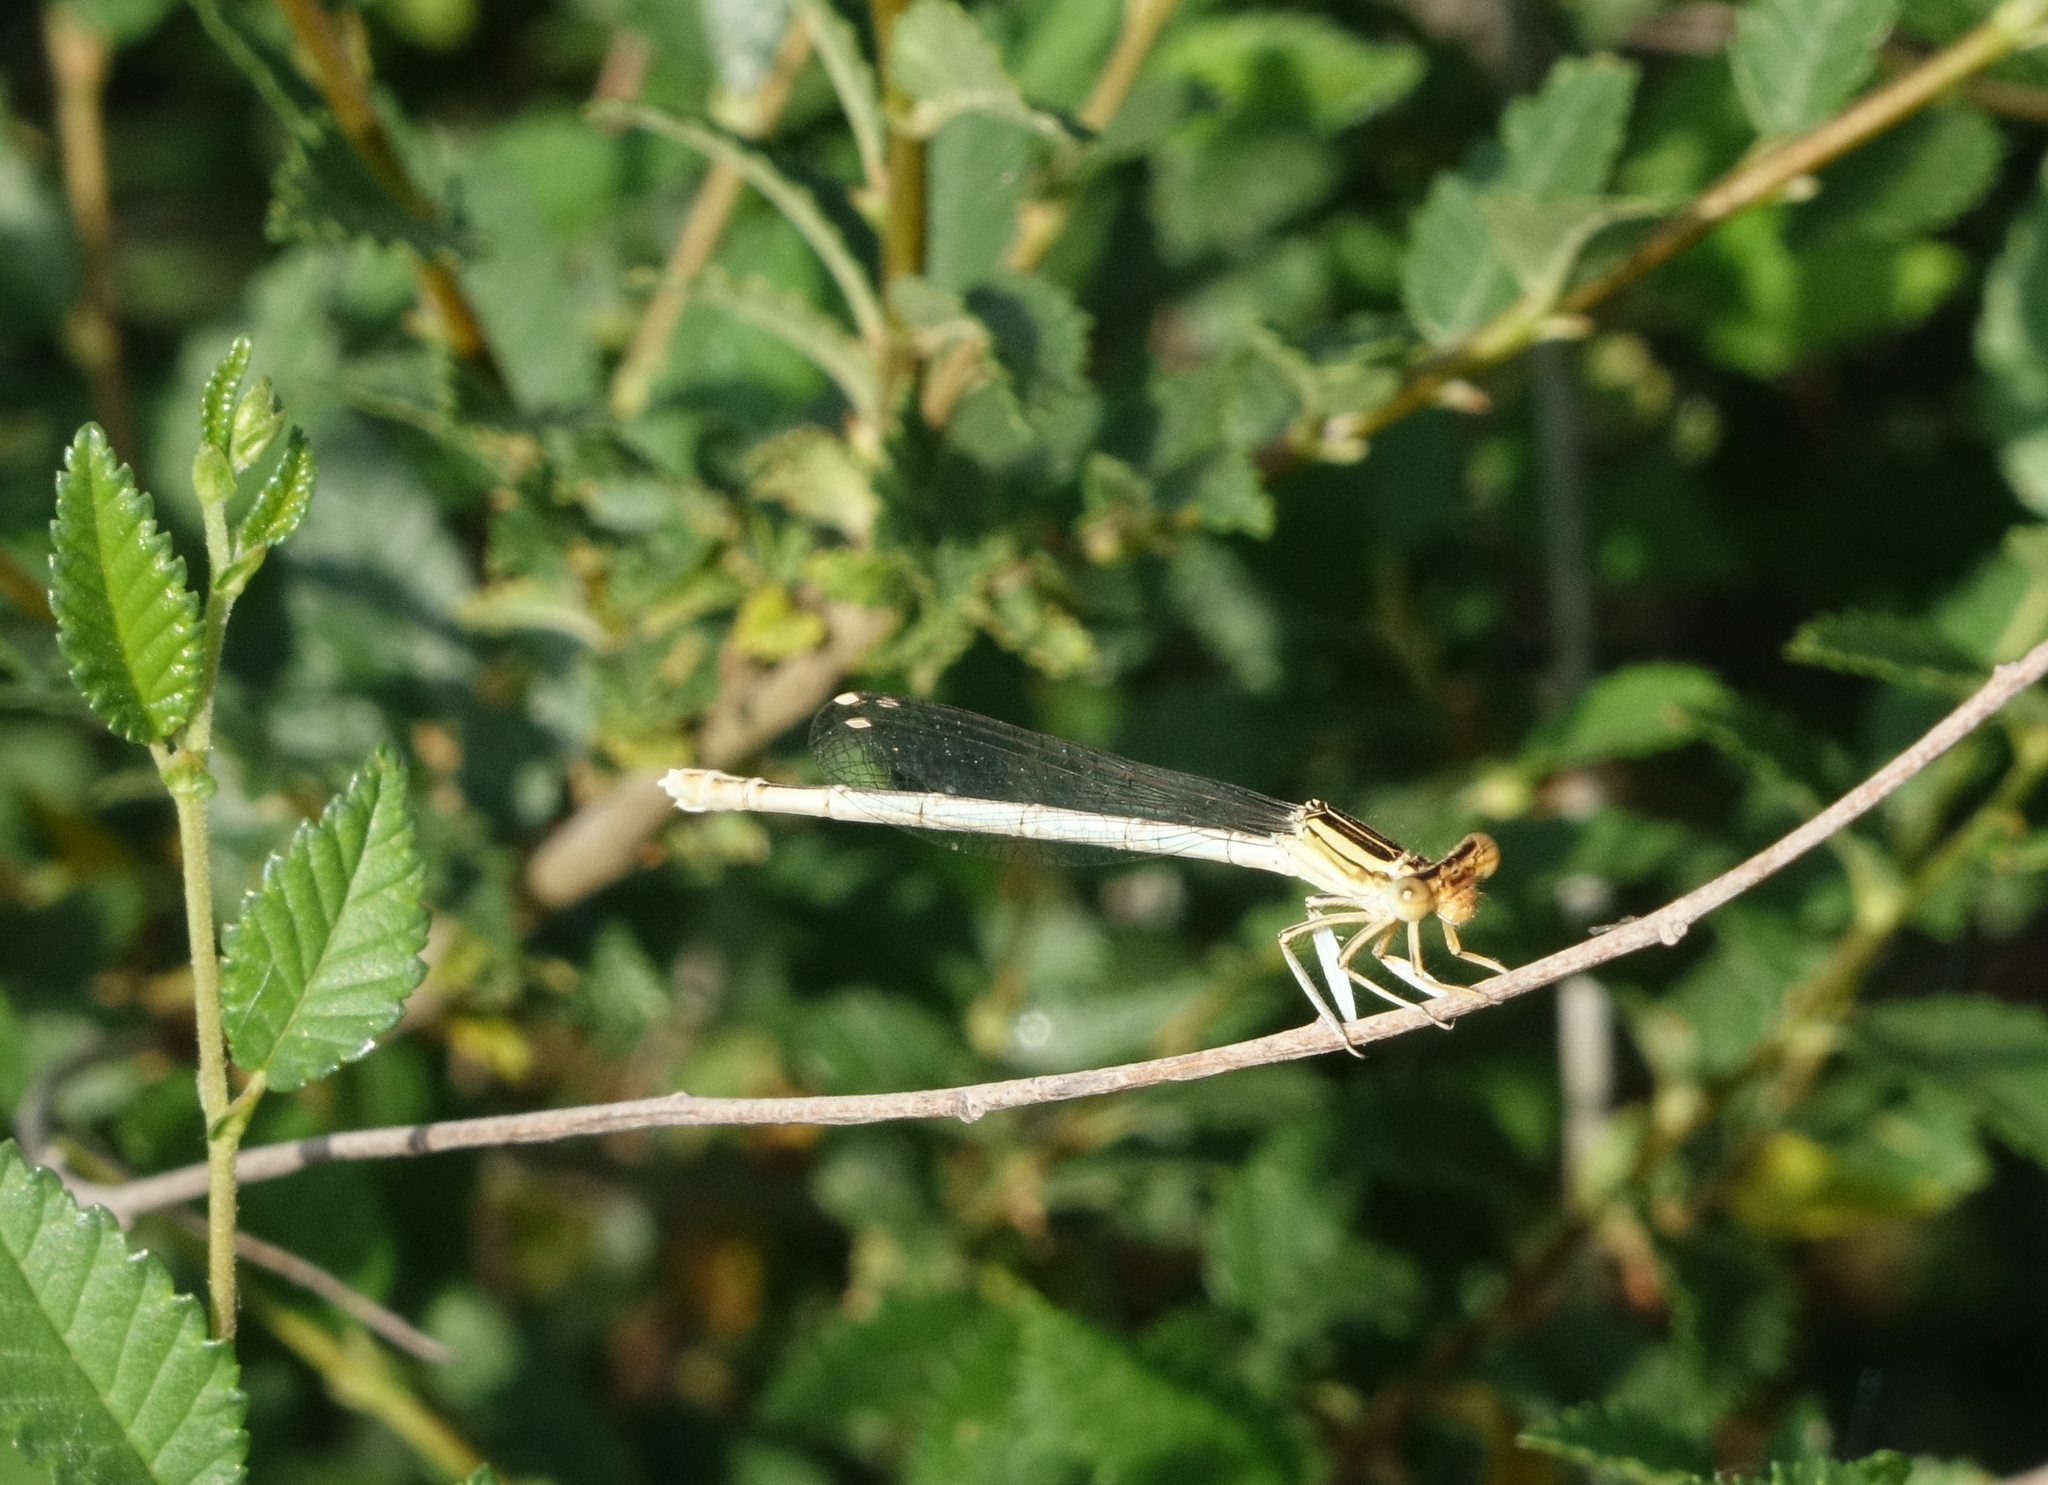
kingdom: Animalia
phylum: Arthropoda
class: Insecta
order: Odonata
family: Platycnemididae
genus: Platycnemis
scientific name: Platycnemis dealbata
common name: Ivory featherleg
